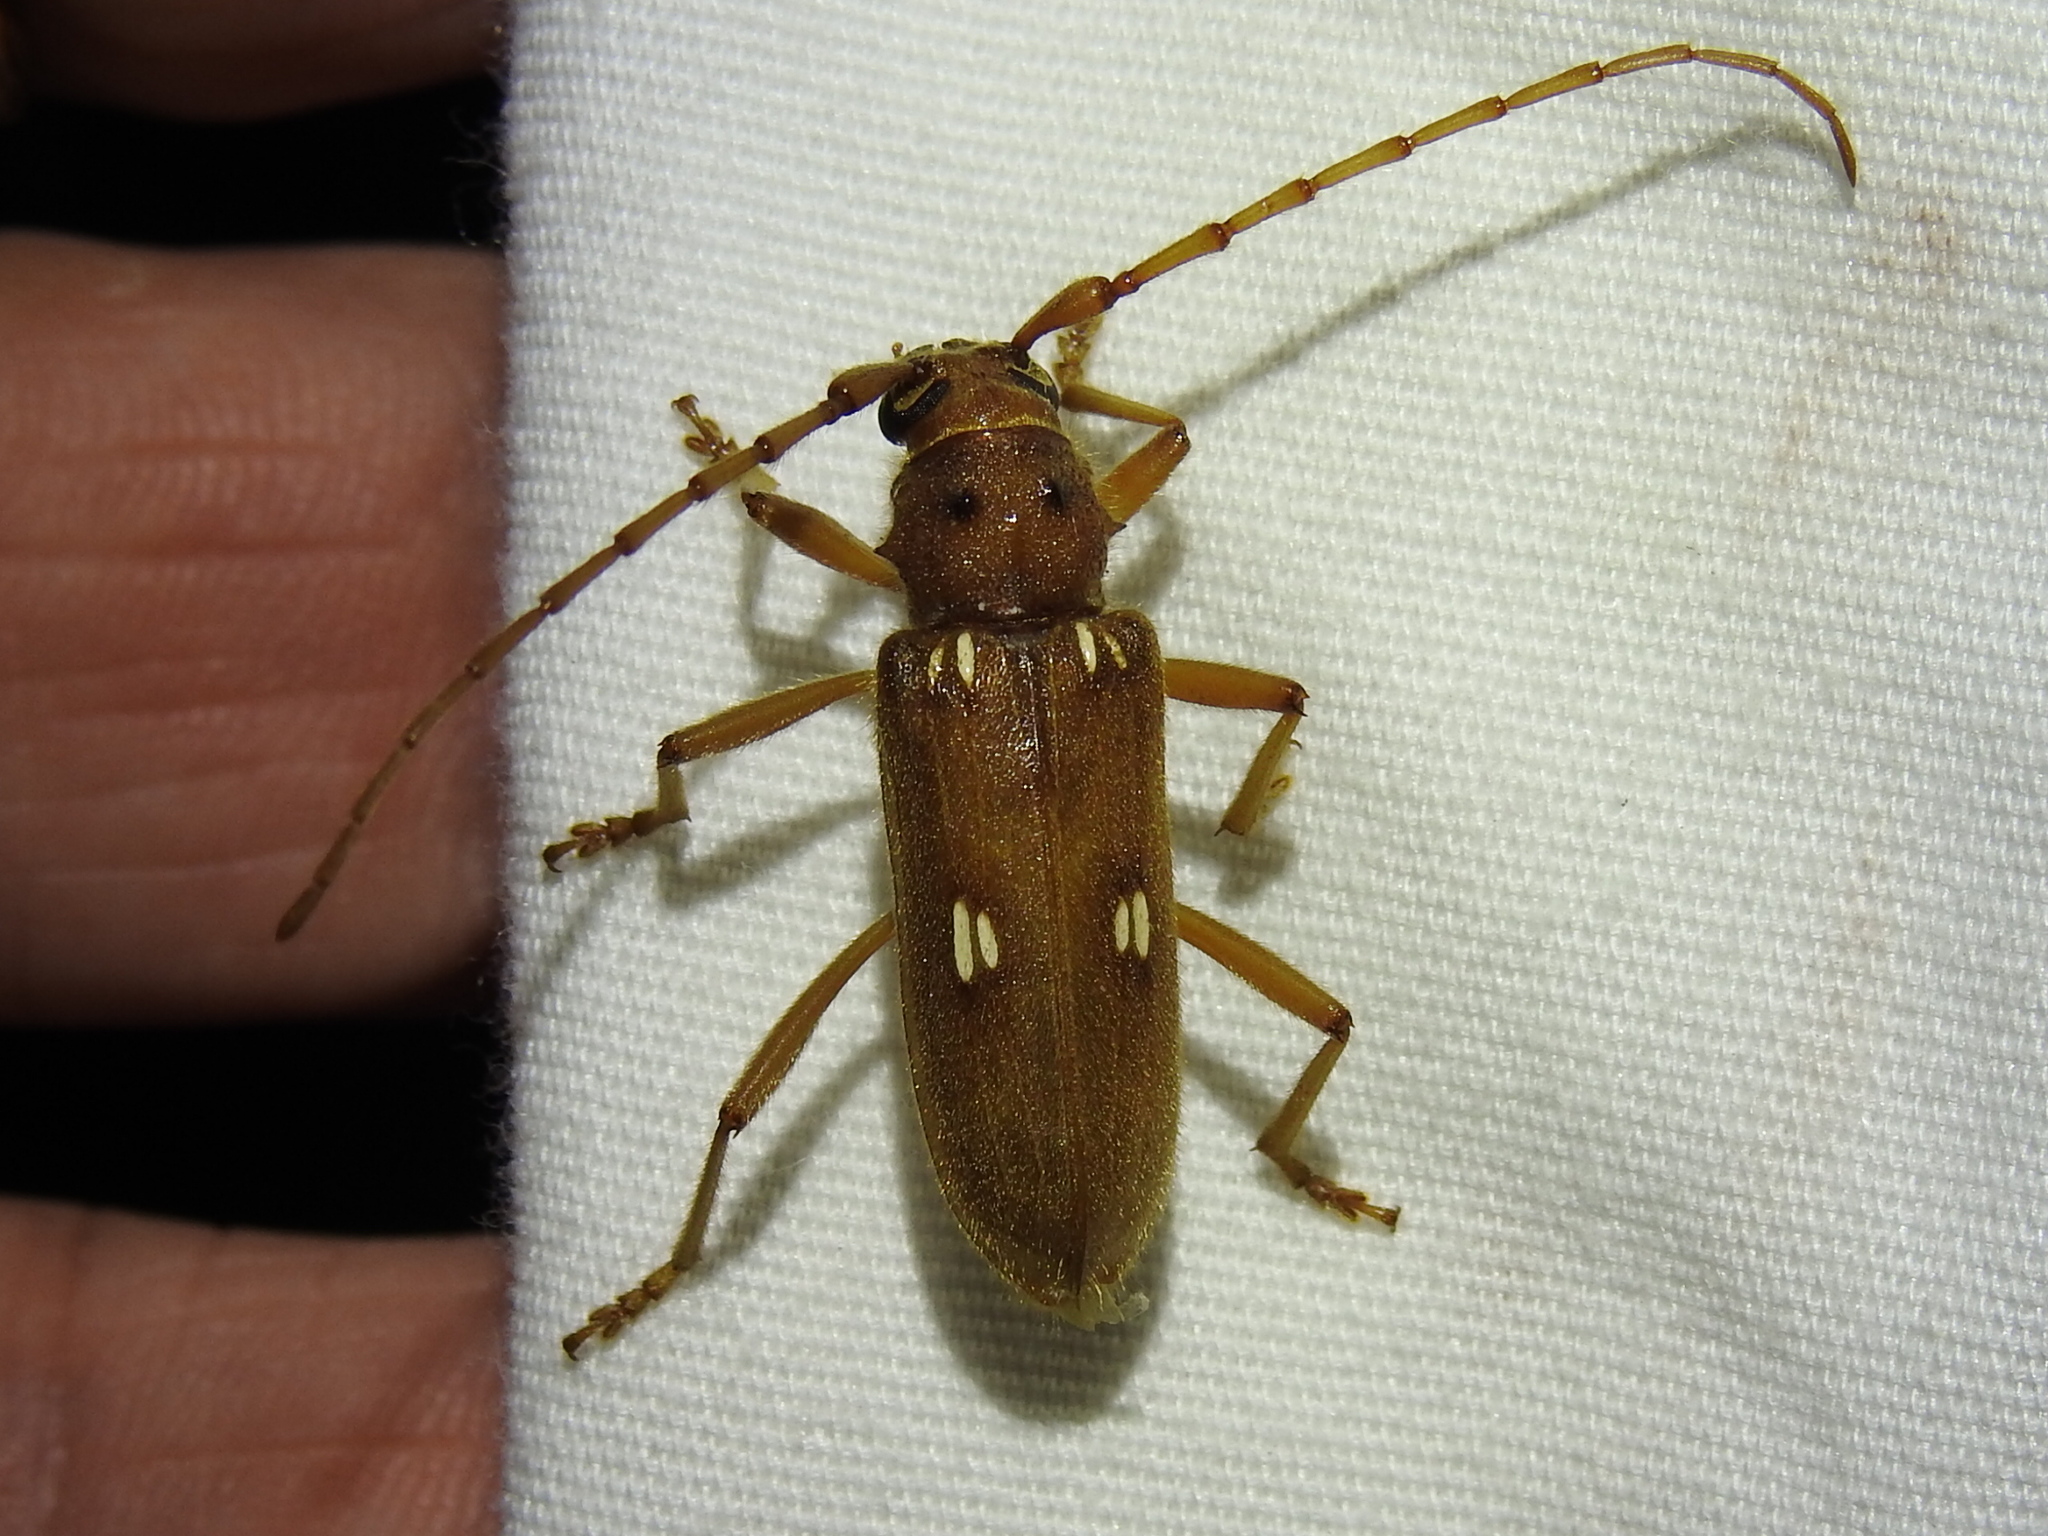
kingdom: Animalia
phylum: Arthropoda
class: Insecta
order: Coleoptera
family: Cerambycidae
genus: Eburia
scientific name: Eburia haldemani
